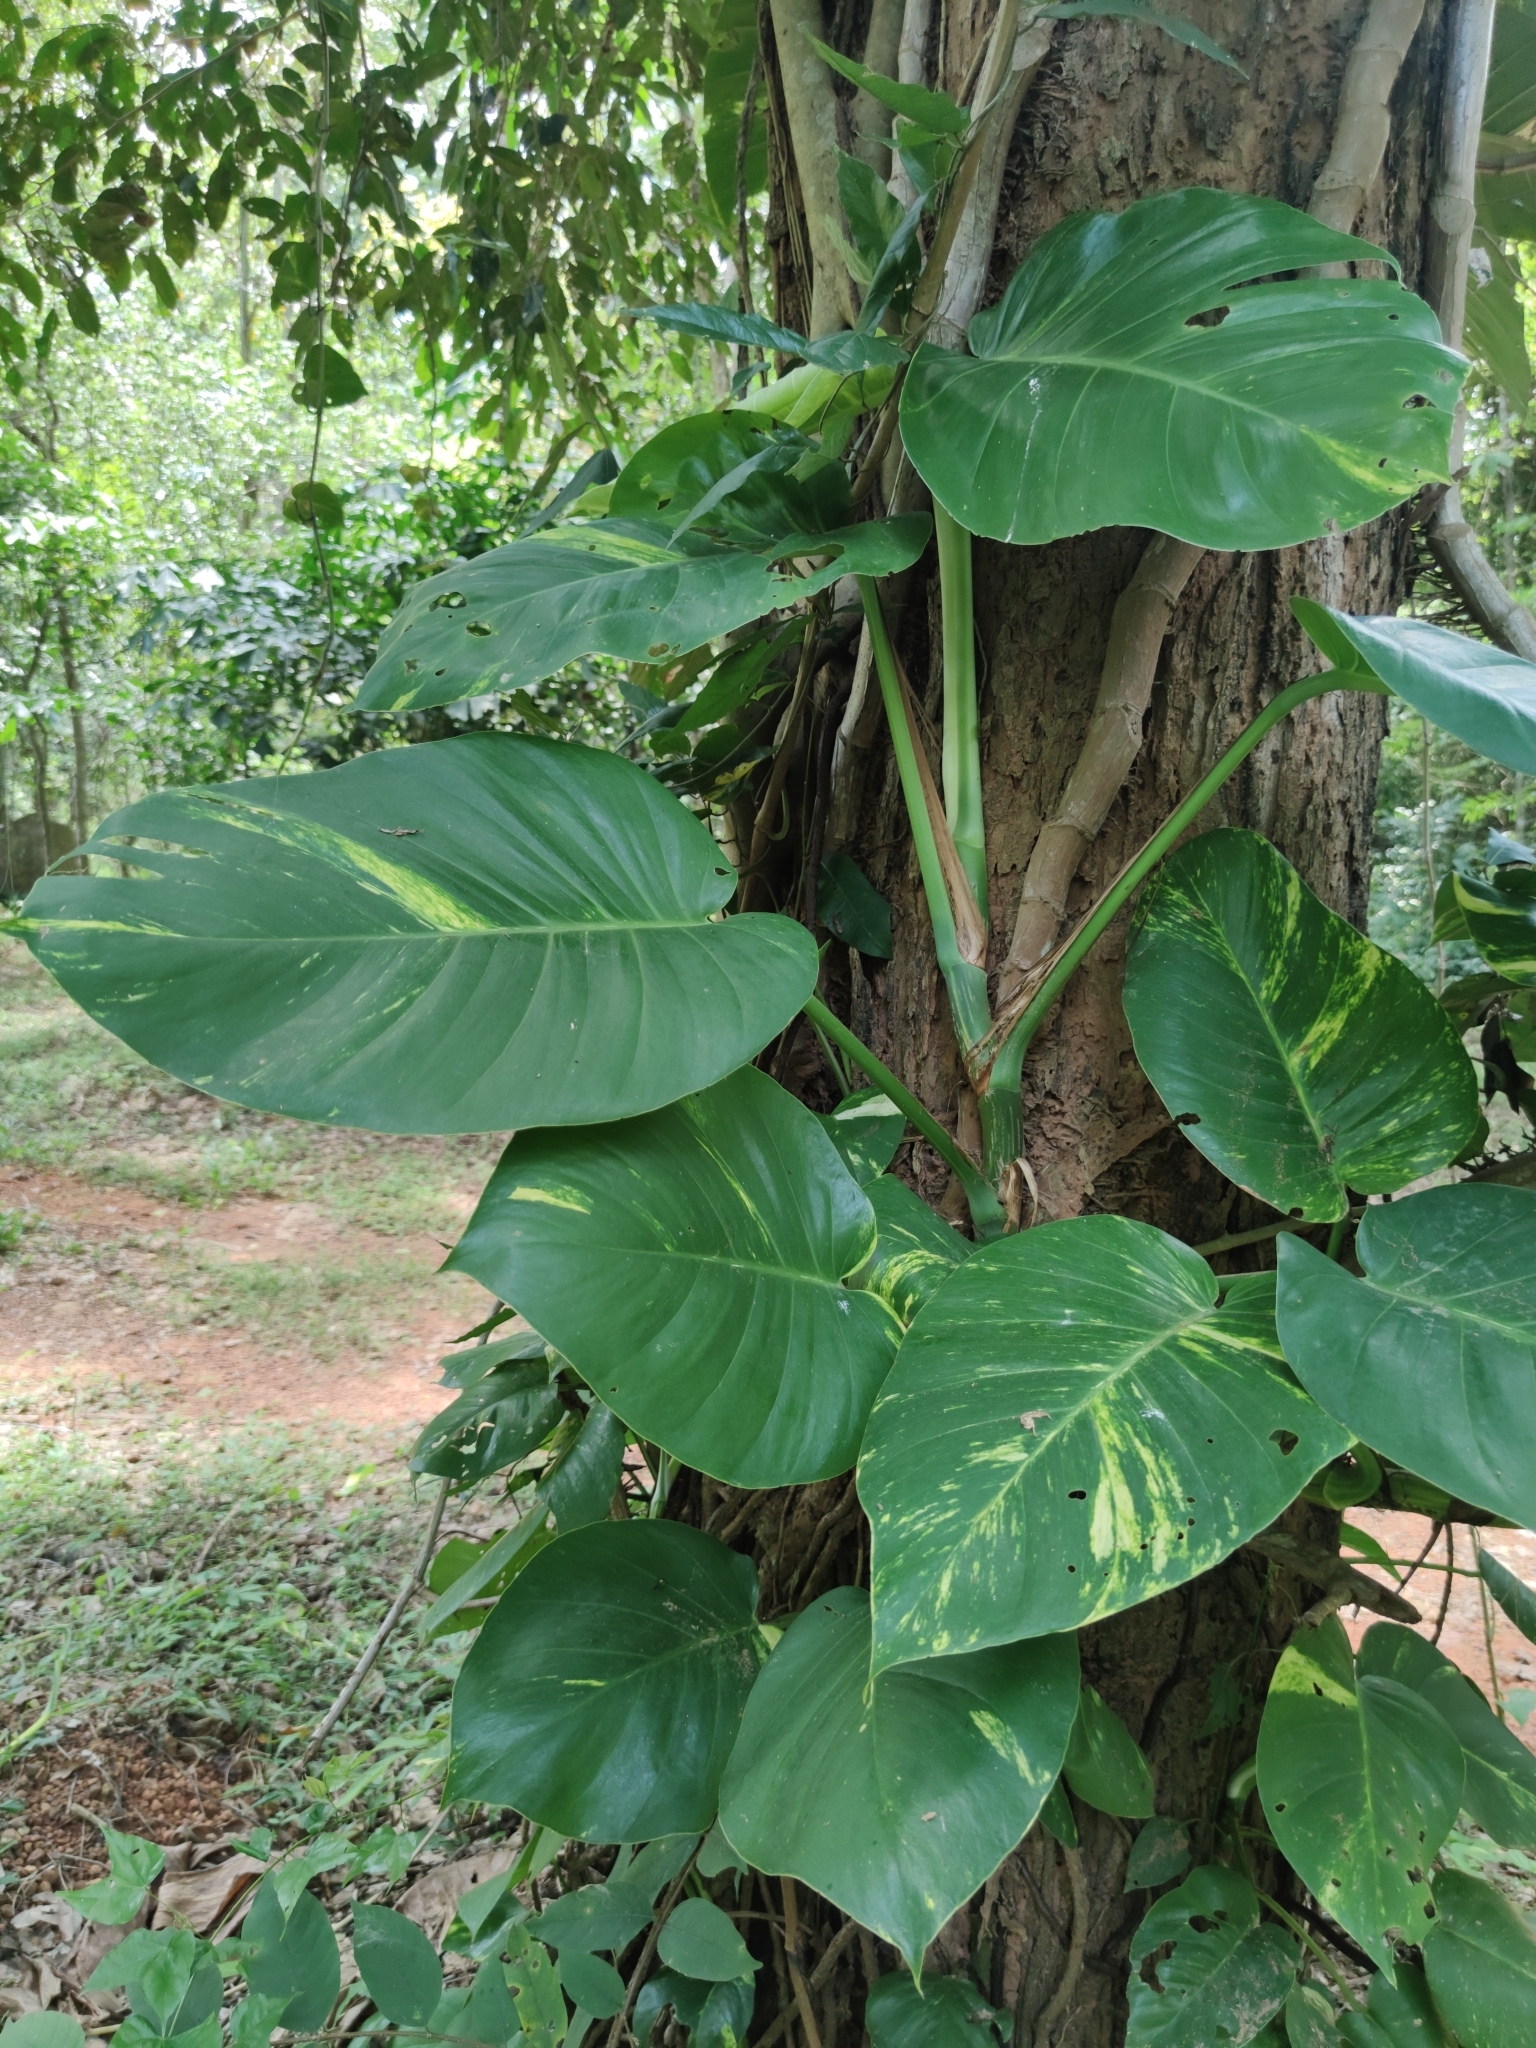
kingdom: Plantae
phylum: Tracheophyta
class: Liliopsida
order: Alismatales
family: Araceae
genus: Epipremnum
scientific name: Epipremnum aureum
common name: Golden hunter's-robe
